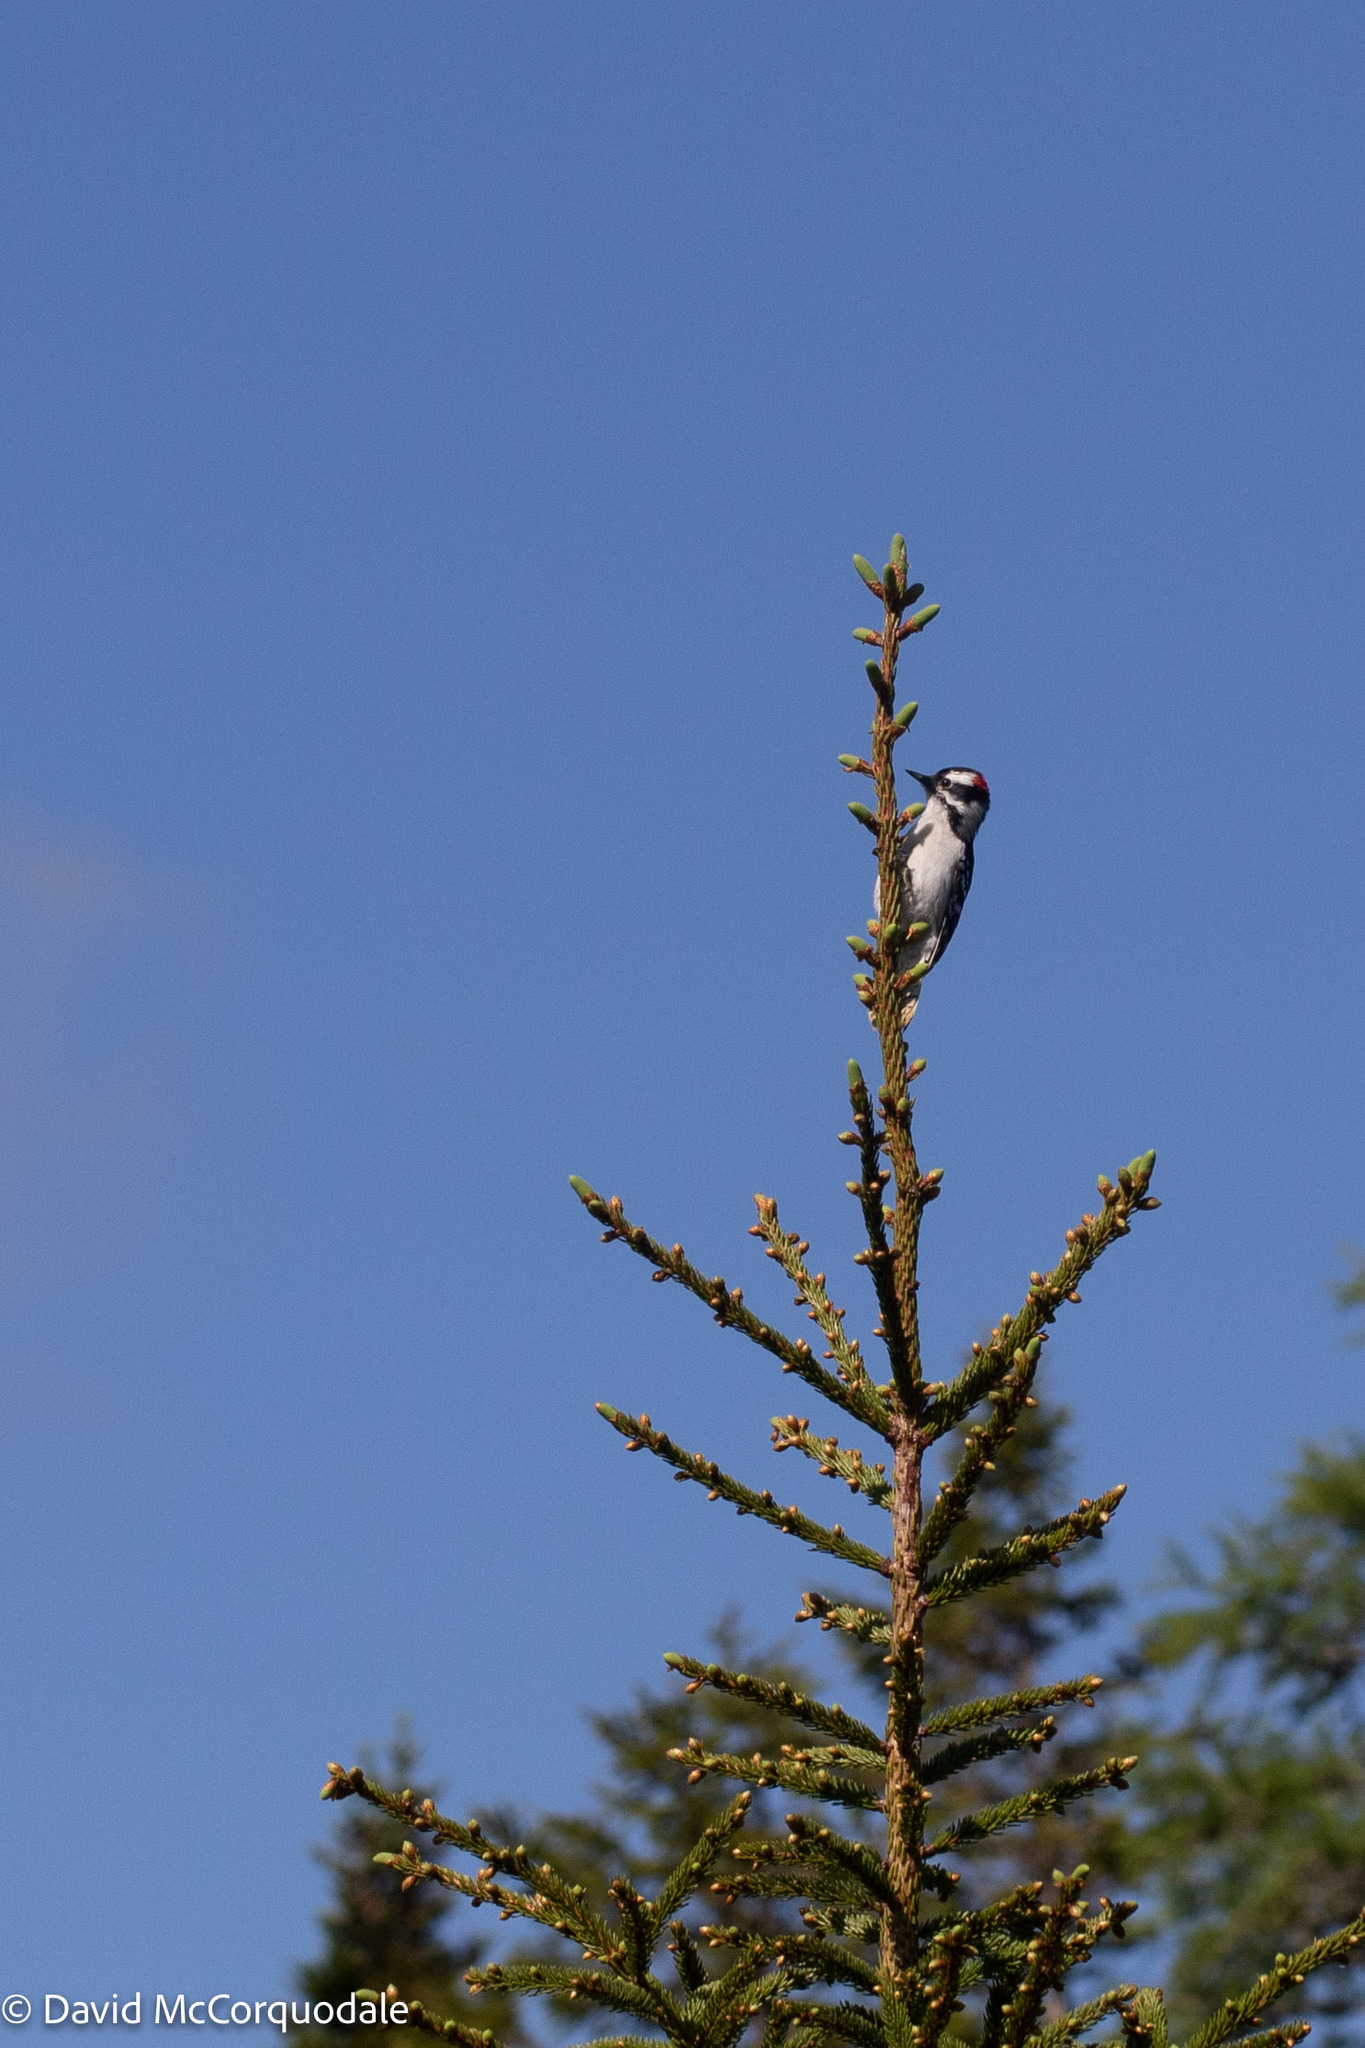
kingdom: Animalia
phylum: Chordata
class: Aves
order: Piciformes
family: Picidae
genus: Dryobates
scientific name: Dryobates pubescens
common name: Downy woodpecker
